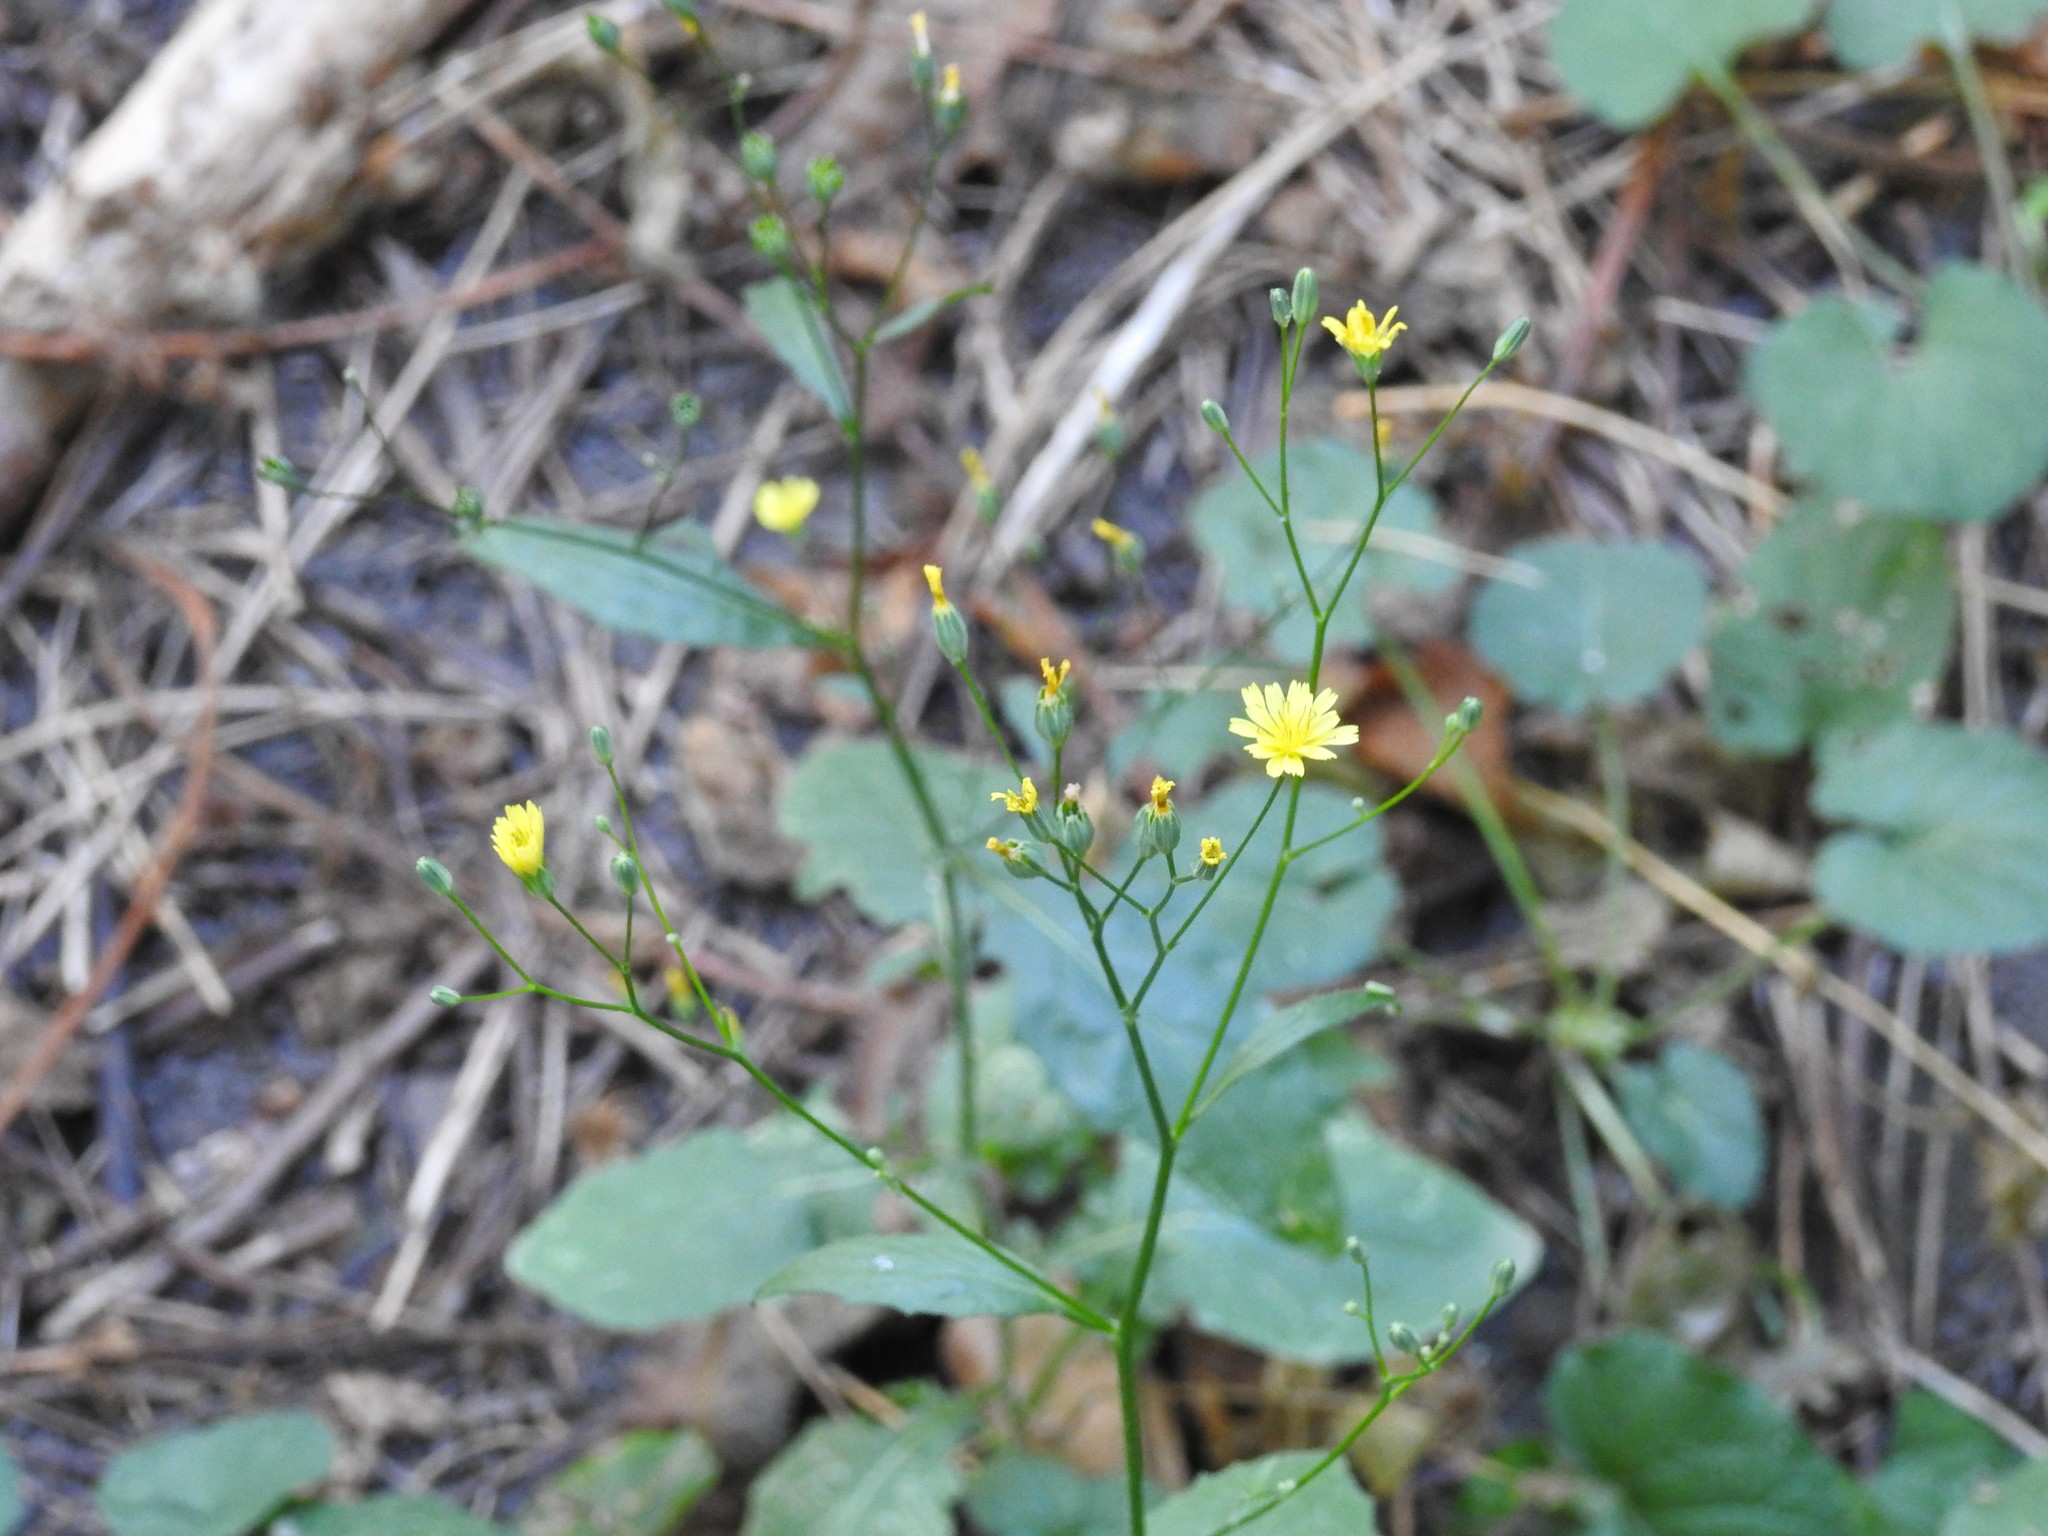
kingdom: Plantae
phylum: Tracheophyta
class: Magnoliopsida
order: Asterales
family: Asteraceae
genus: Lapsana
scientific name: Lapsana communis
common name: Nipplewort
